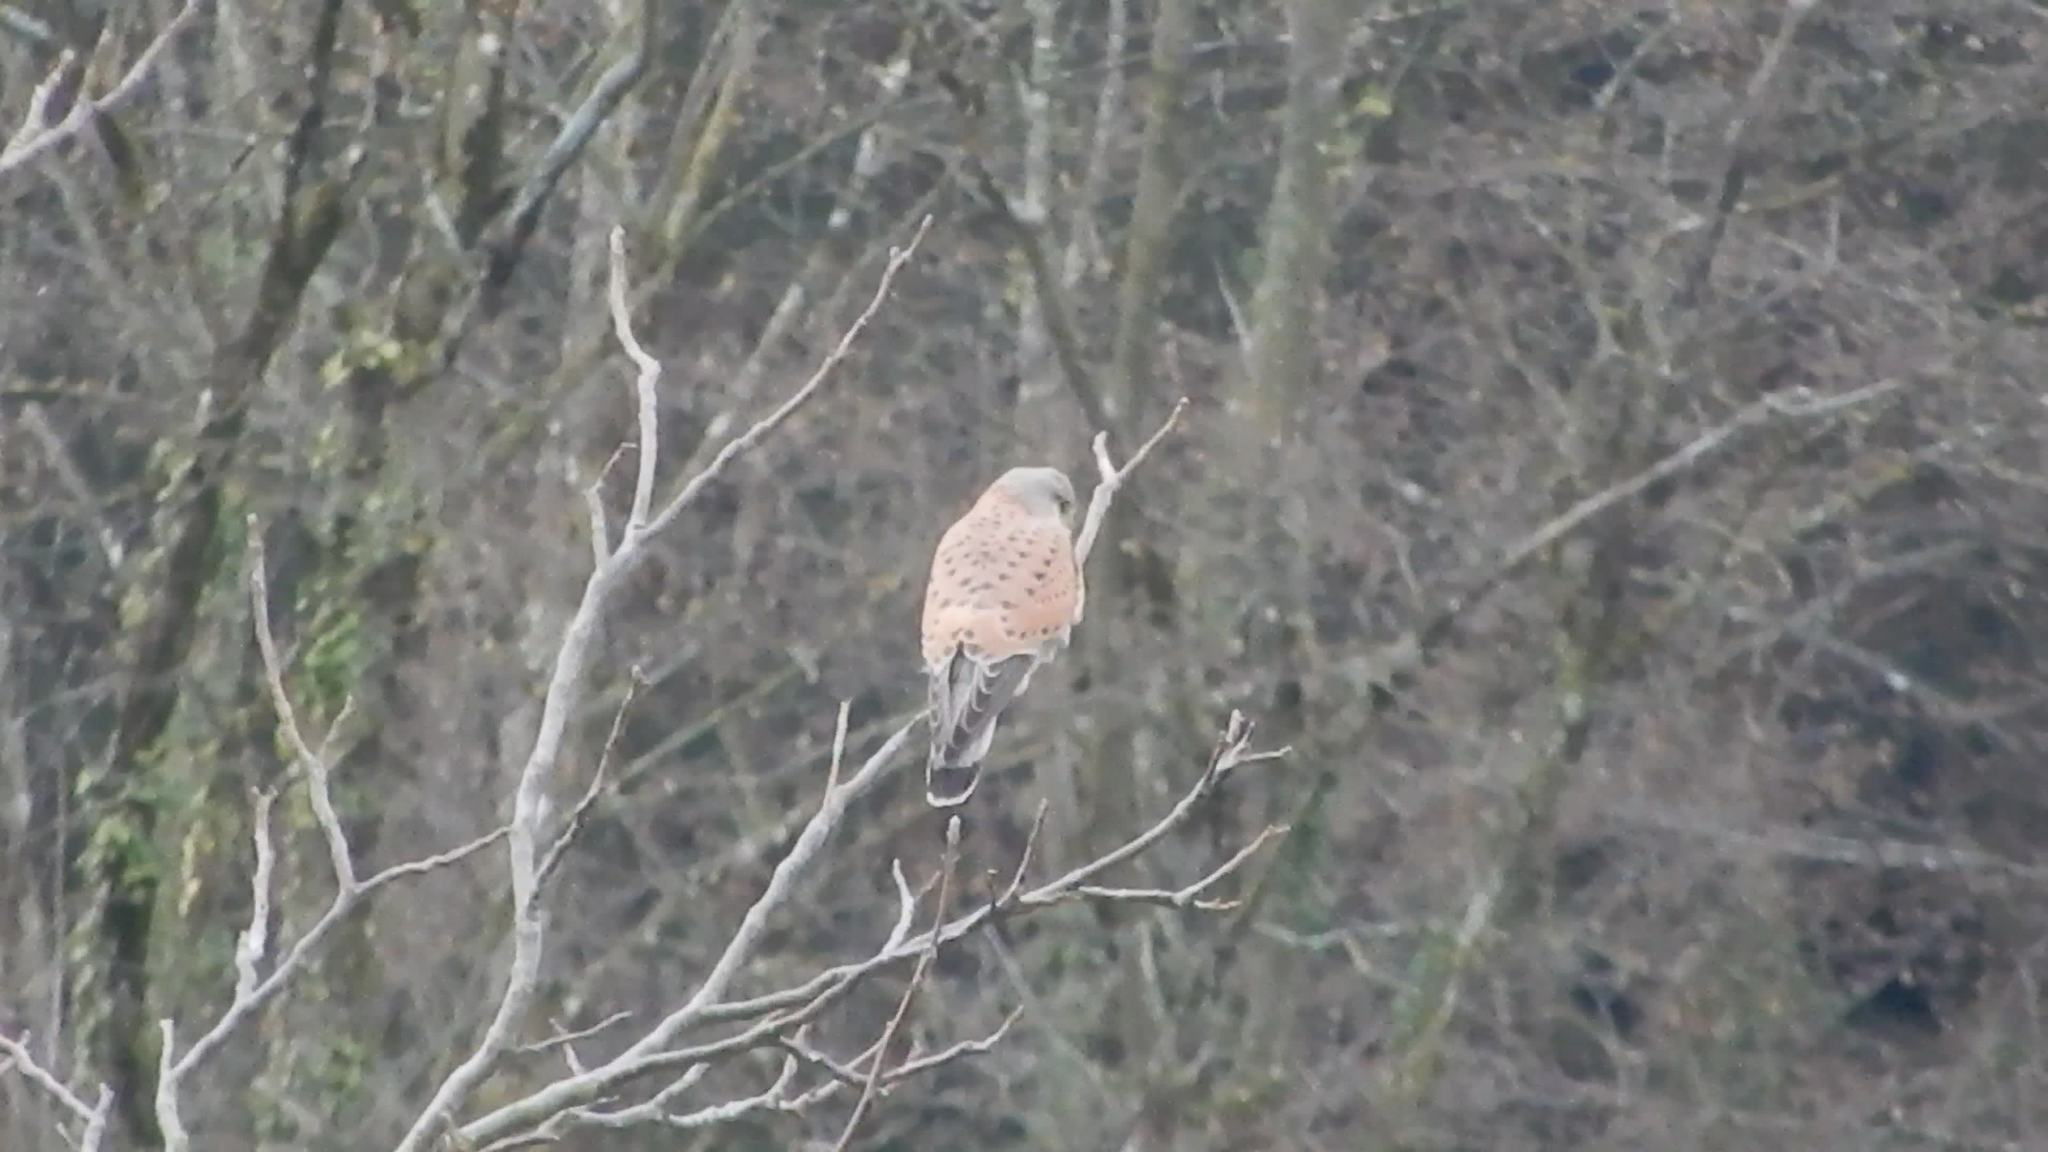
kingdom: Animalia
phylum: Chordata
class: Aves
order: Falconiformes
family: Falconidae
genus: Falco
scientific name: Falco tinnunculus
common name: Common kestrel
